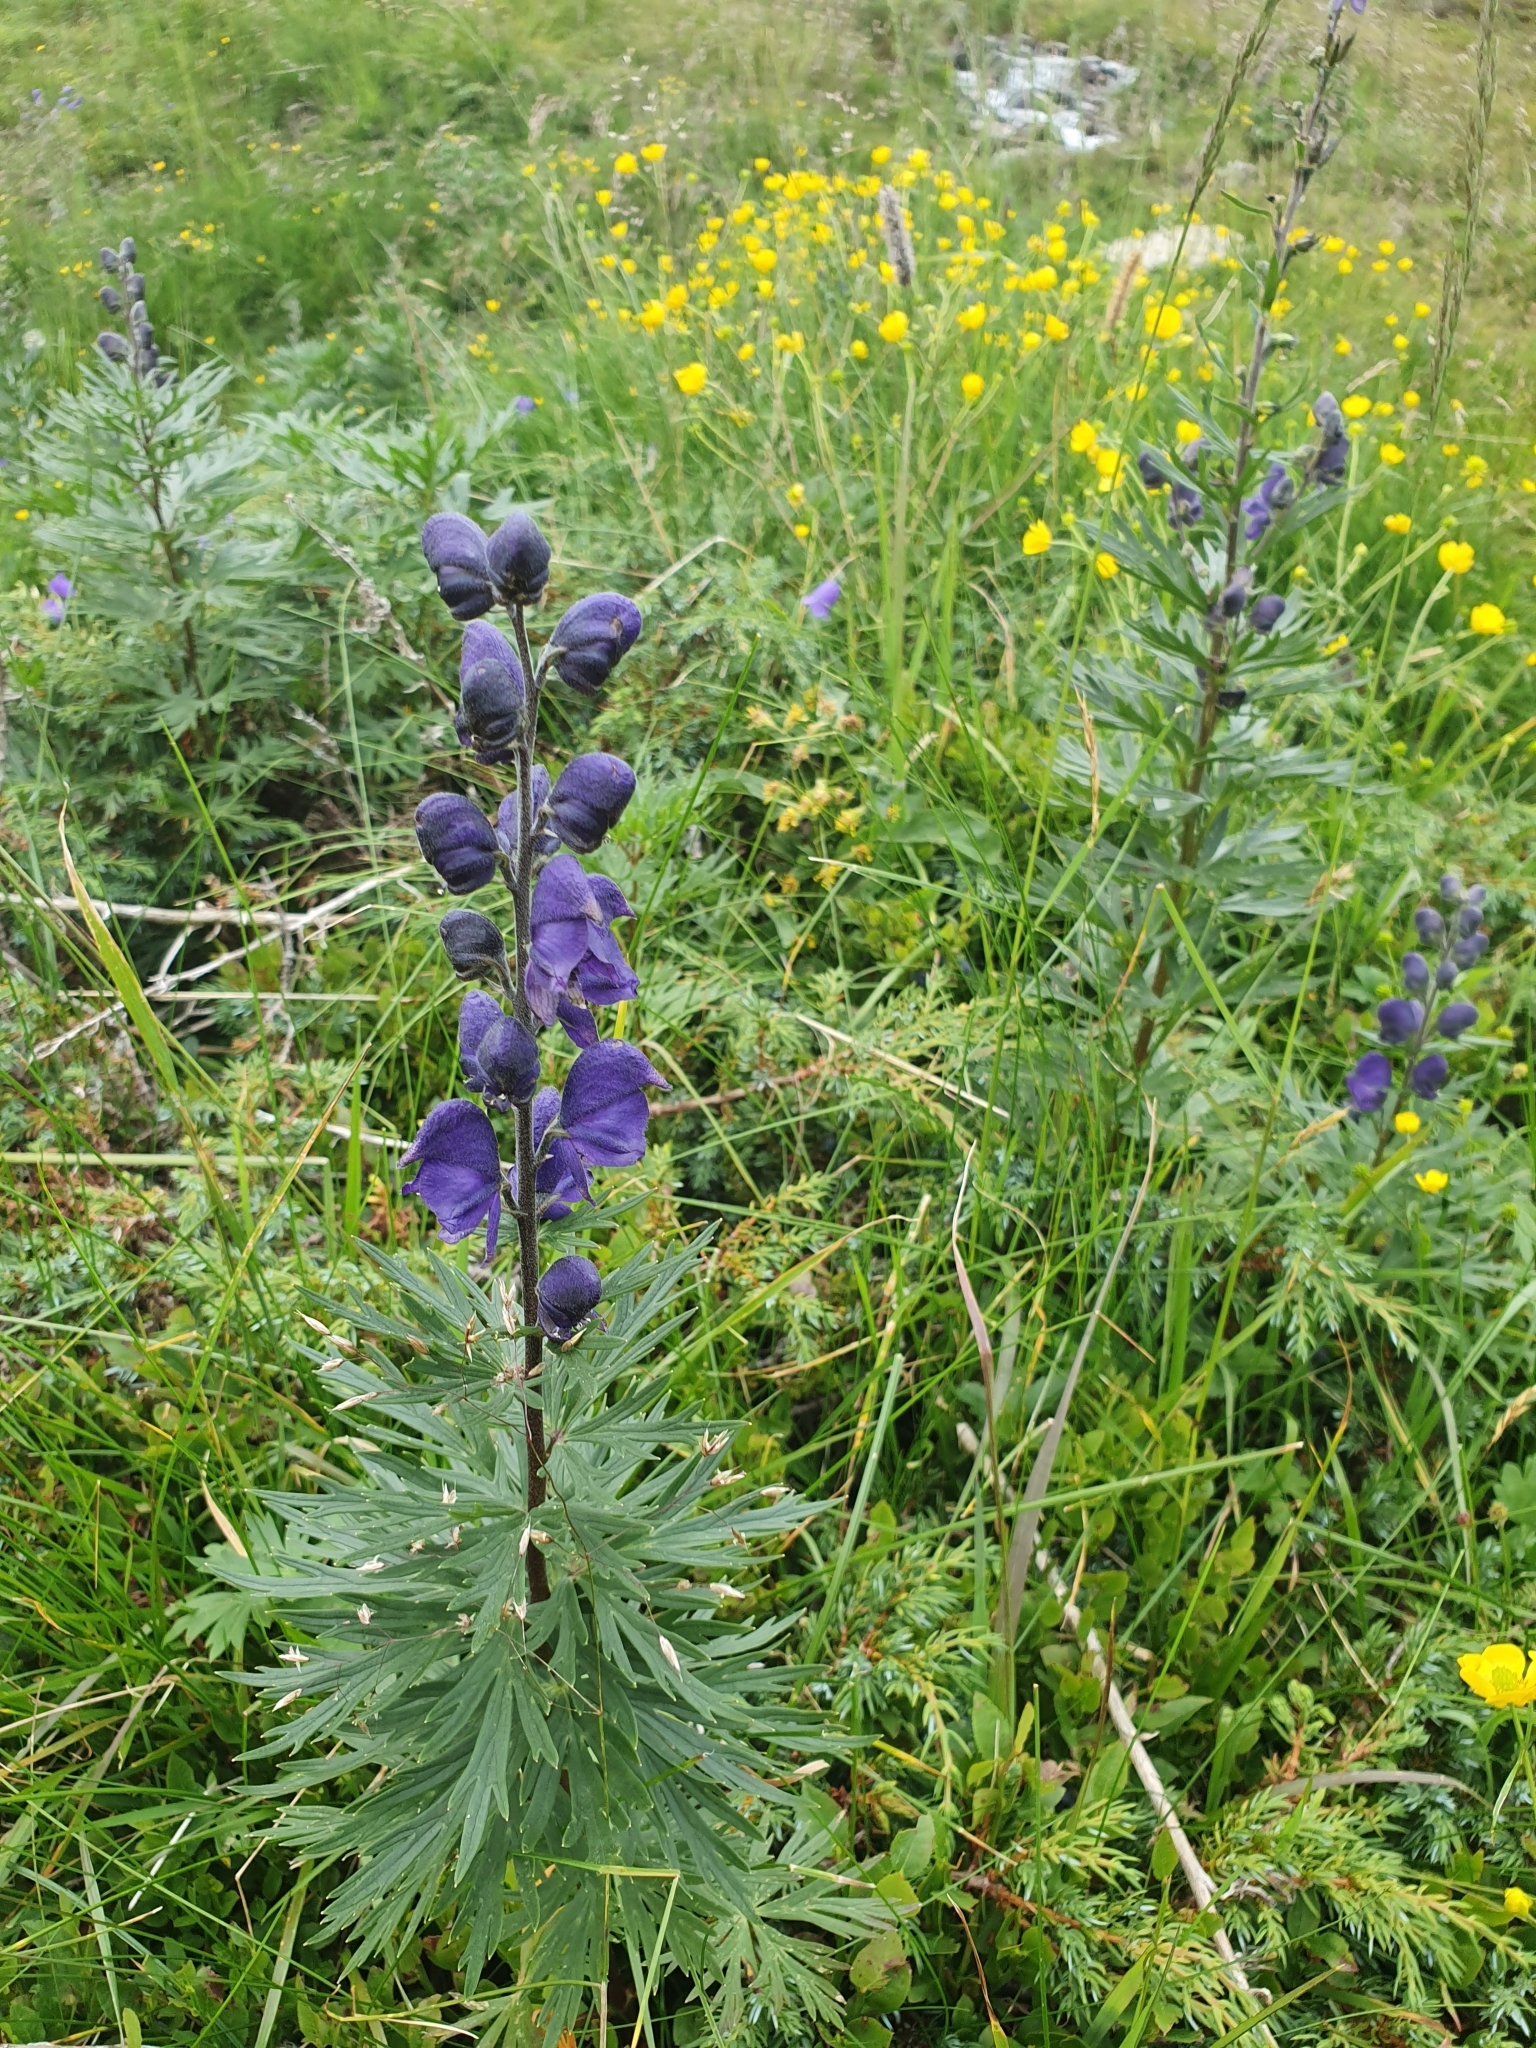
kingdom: Plantae
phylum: Tracheophyta
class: Magnoliopsida
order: Ranunculales
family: Ranunculaceae
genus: Aconitum
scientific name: Aconitum napellus
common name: Garden monkshood
